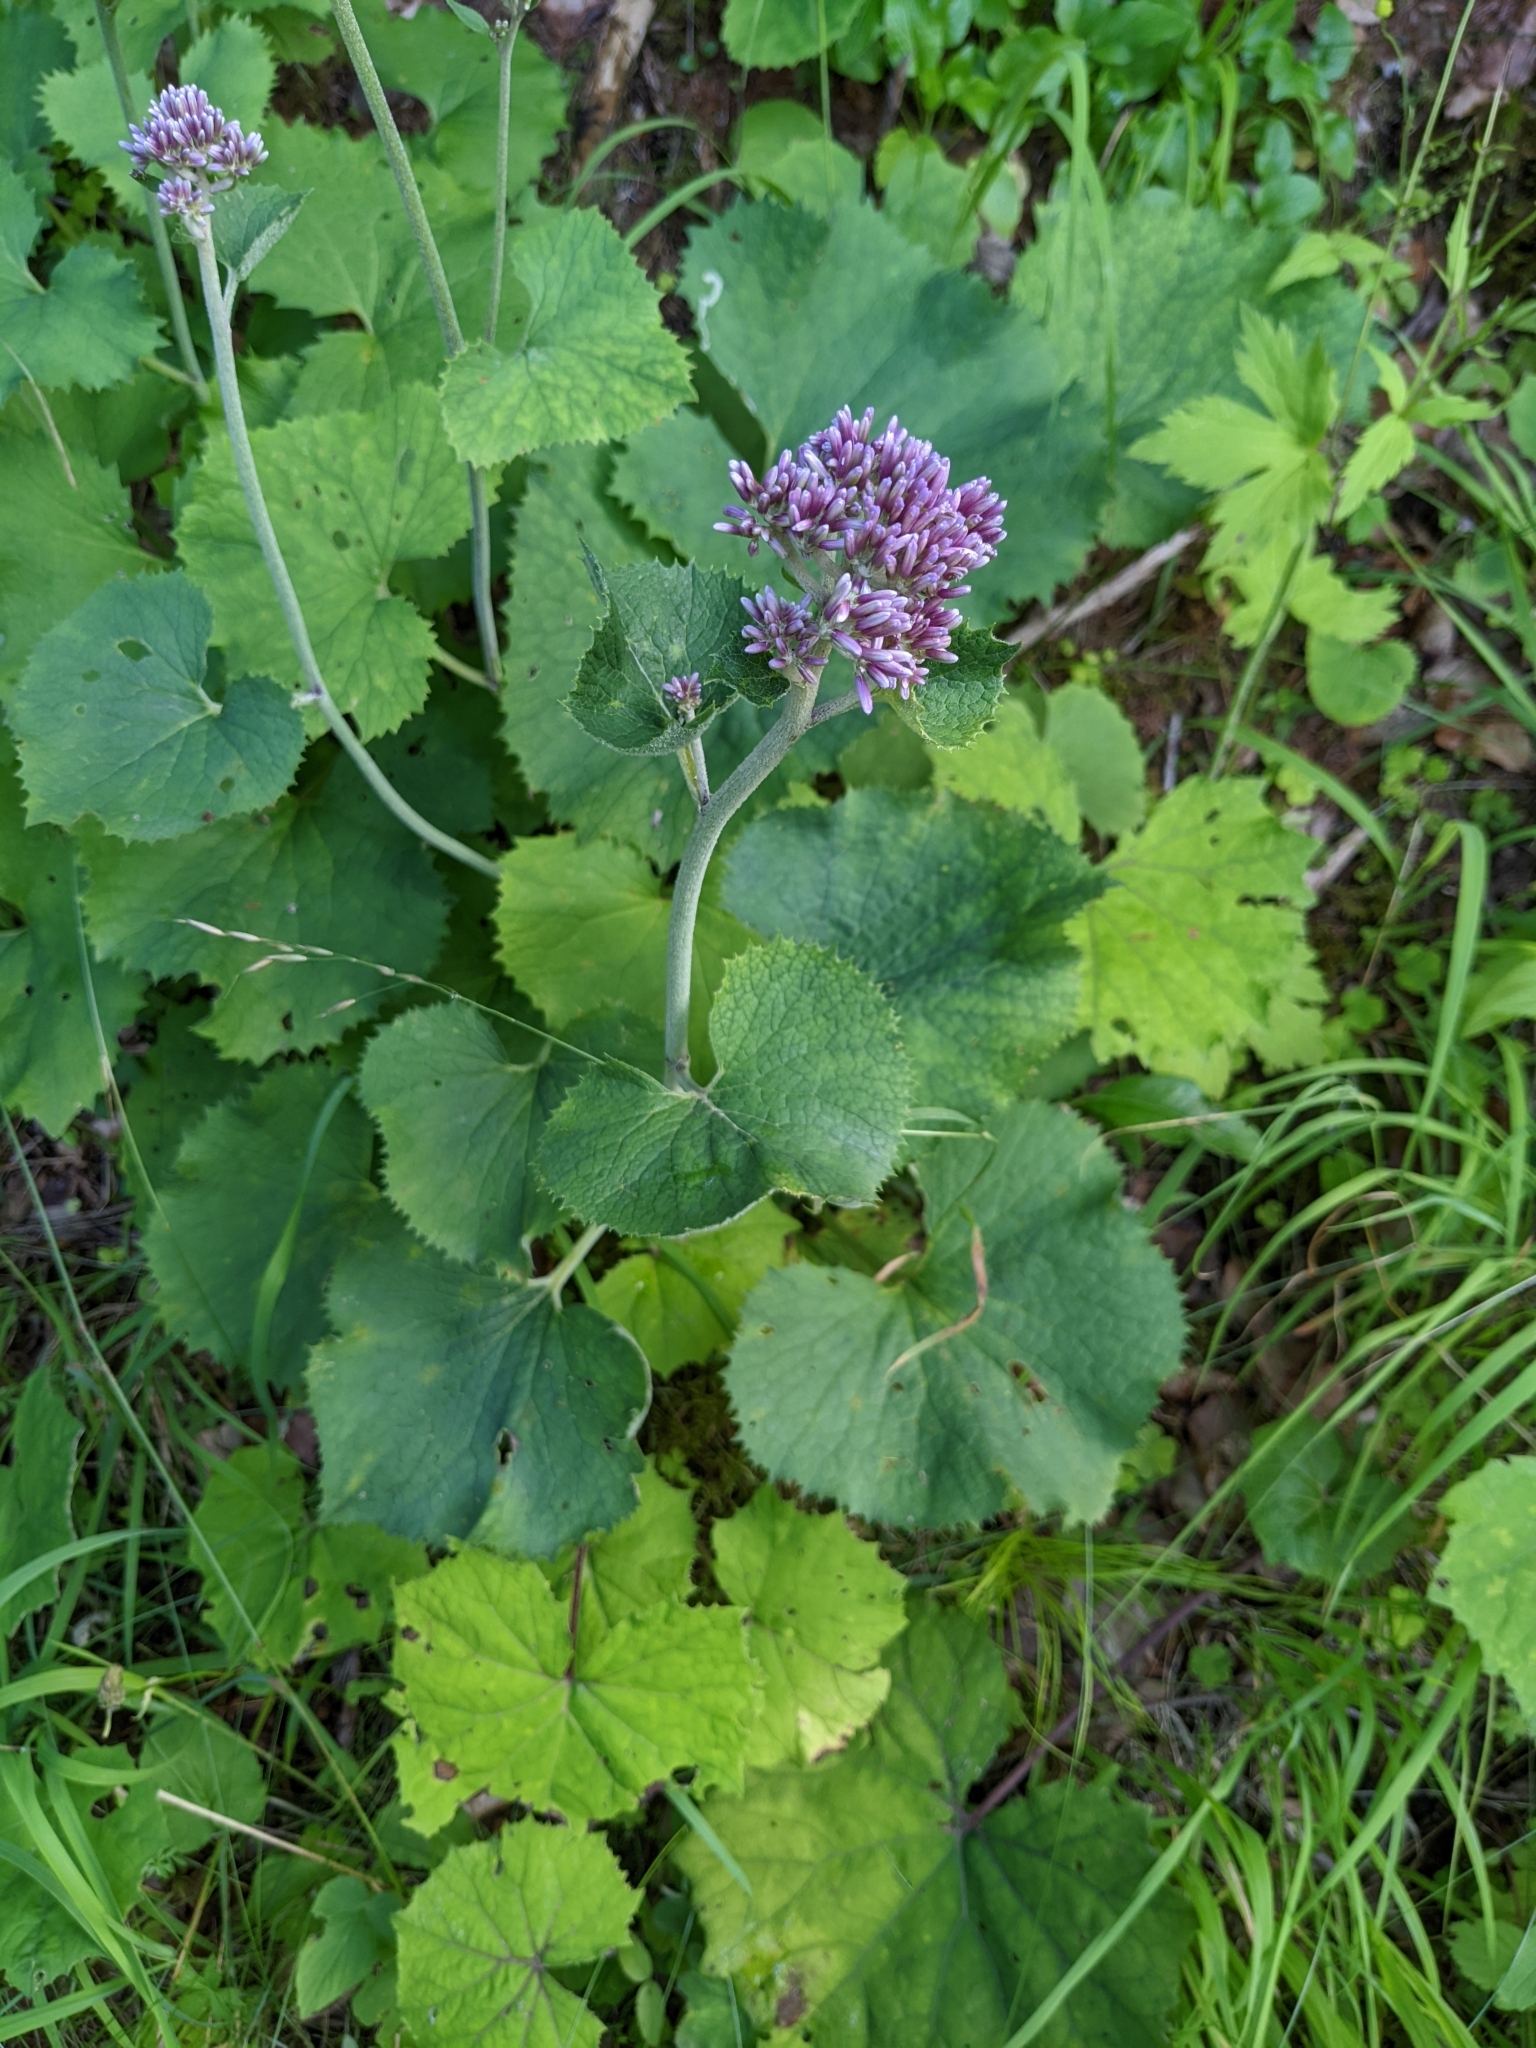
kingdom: Plantae
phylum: Tracheophyta
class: Magnoliopsida
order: Asterales
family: Asteraceae
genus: Adenostyles
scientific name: Adenostyles alpina
